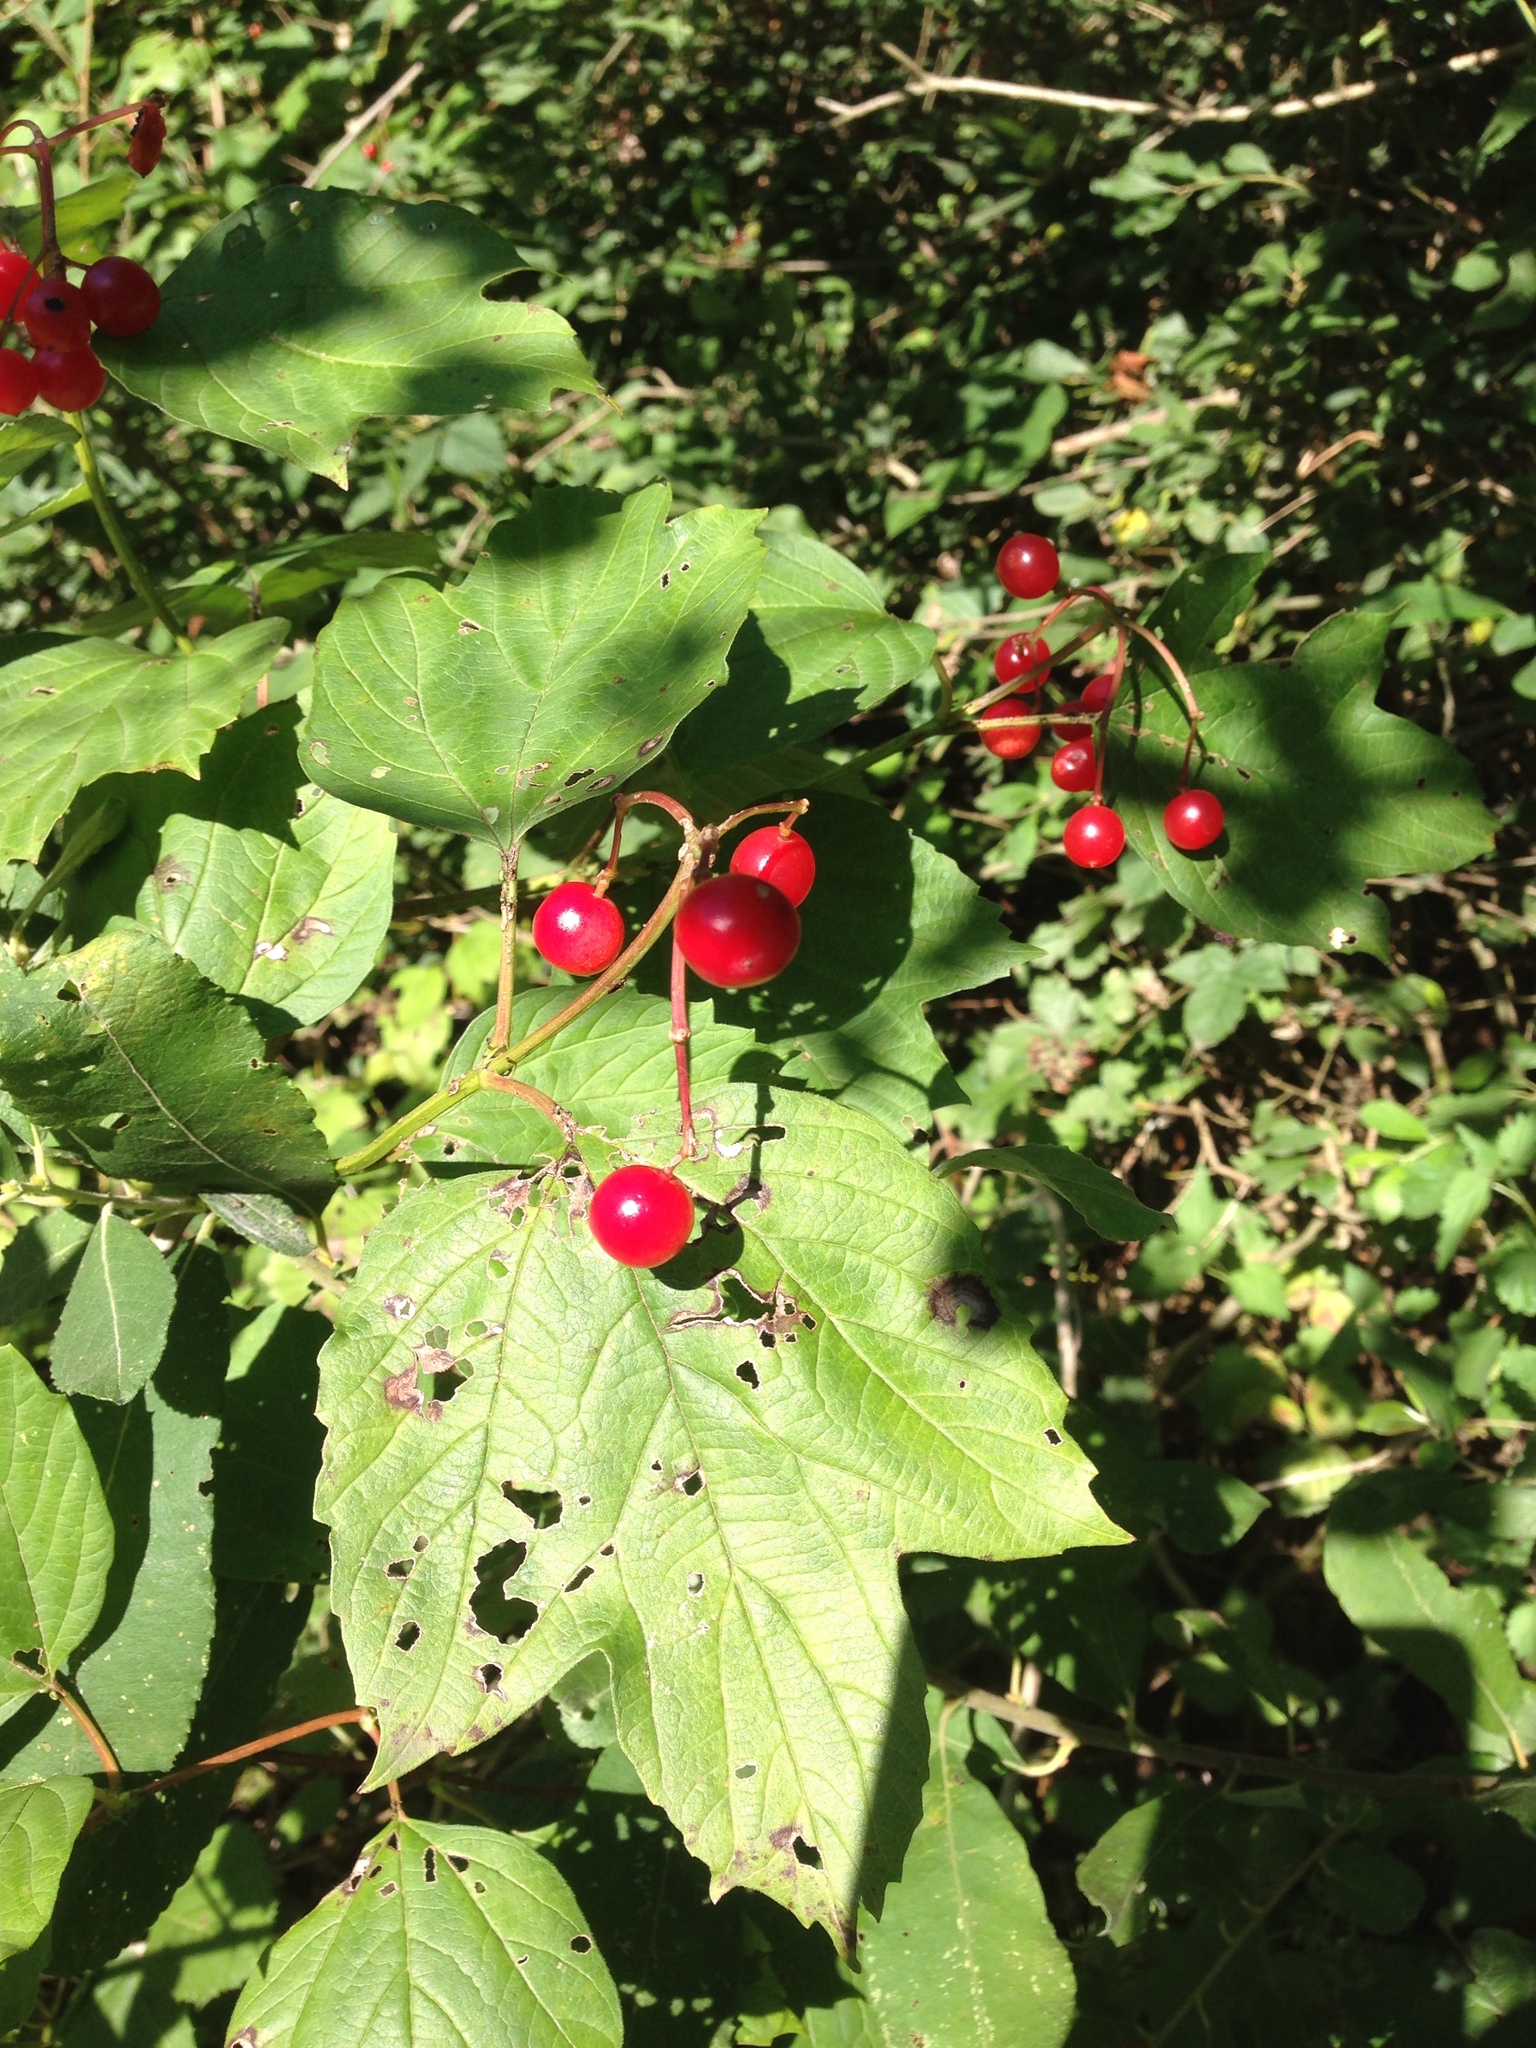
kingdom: Plantae
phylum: Tracheophyta
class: Magnoliopsida
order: Dipsacales
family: Viburnaceae
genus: Viburnum
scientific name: Viburnum opulus
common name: Guelder-rose
